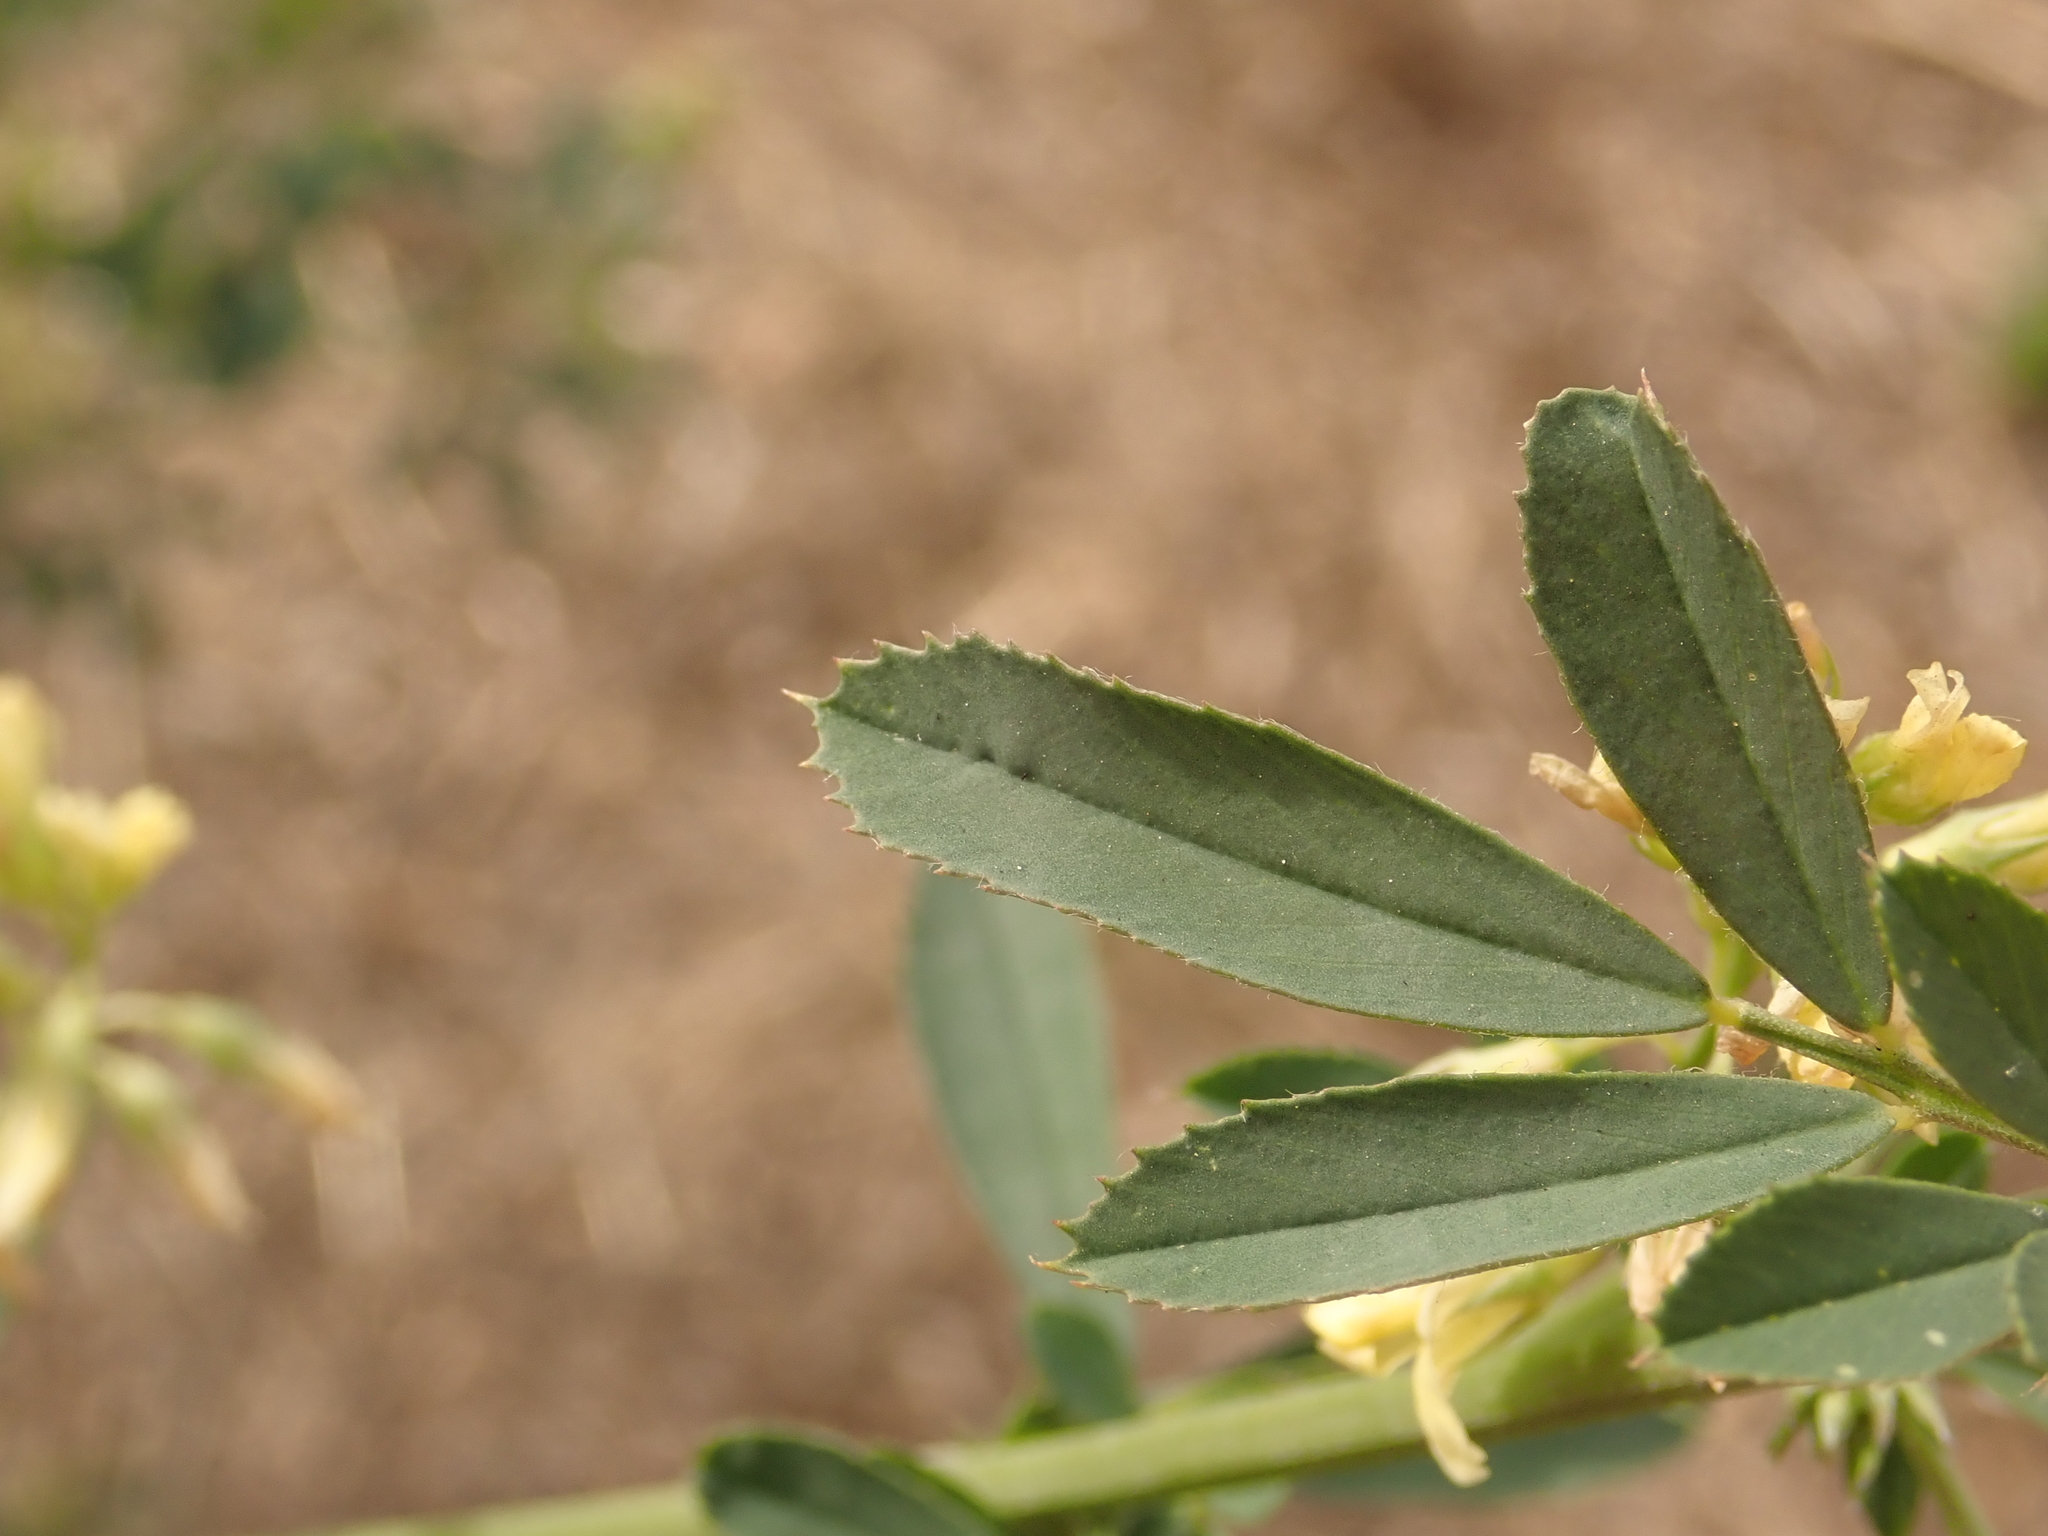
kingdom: Plantae
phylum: Tracheophyta
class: Magnoliopsida
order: Fabales
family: Fabaceae
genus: Medicago
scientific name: Medicago falcata
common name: Sickle medick
